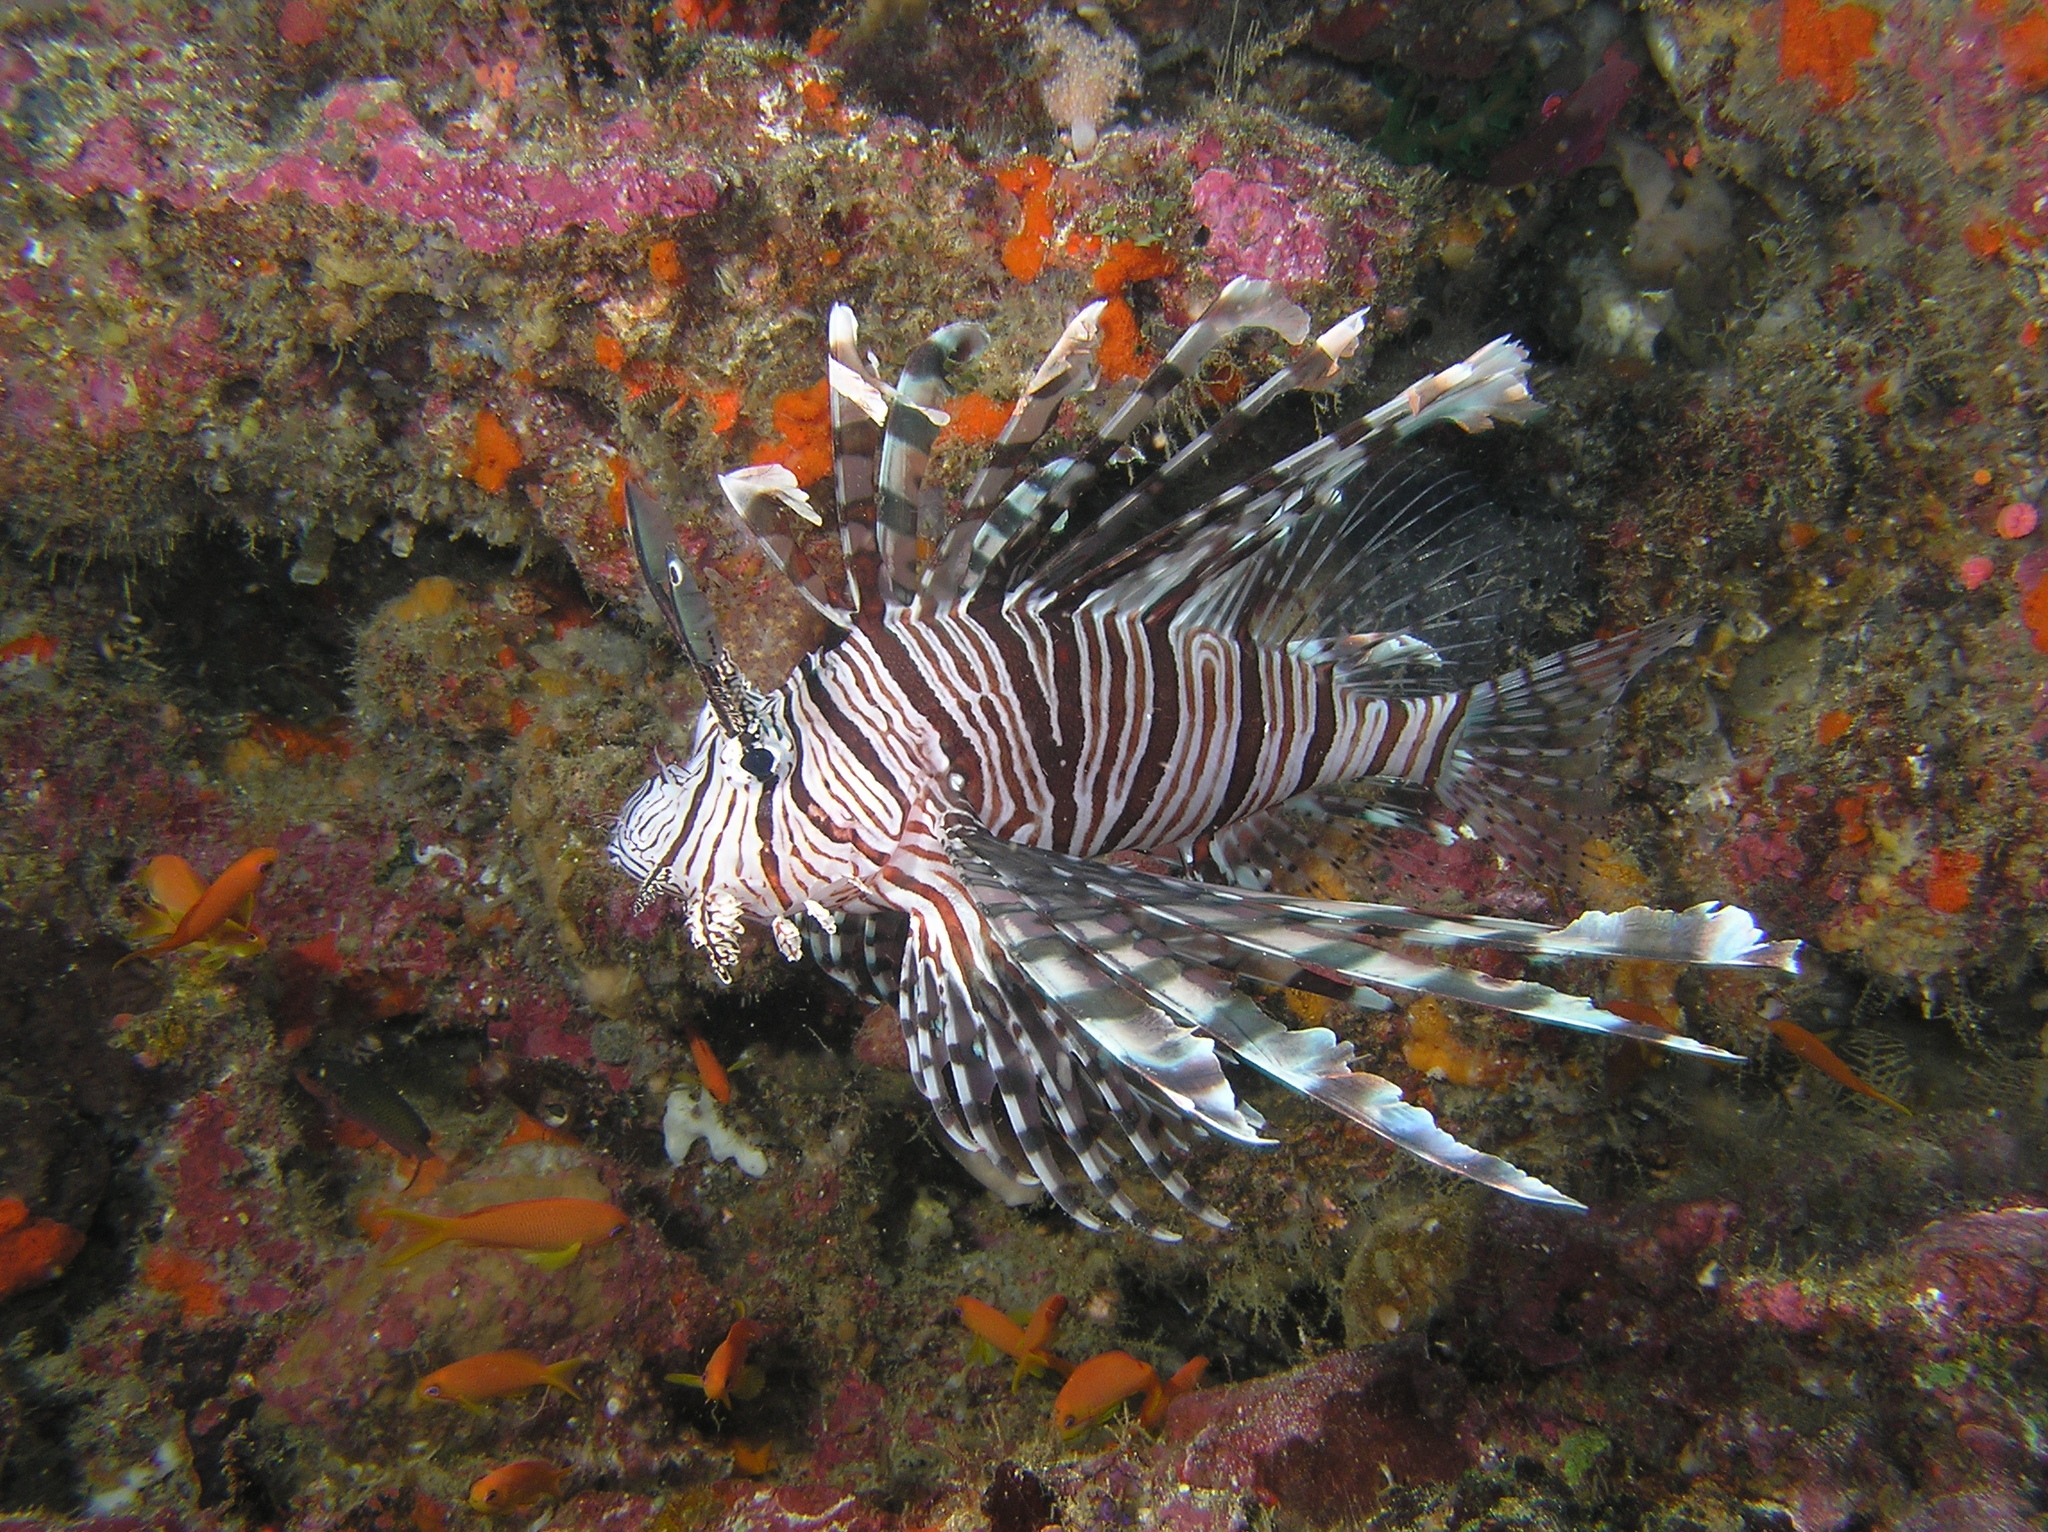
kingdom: Animalia
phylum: Chordata
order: Scorpaeniformes
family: Scorpaenidae
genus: Pterois
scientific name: Pterois volitans
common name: Lionfish
